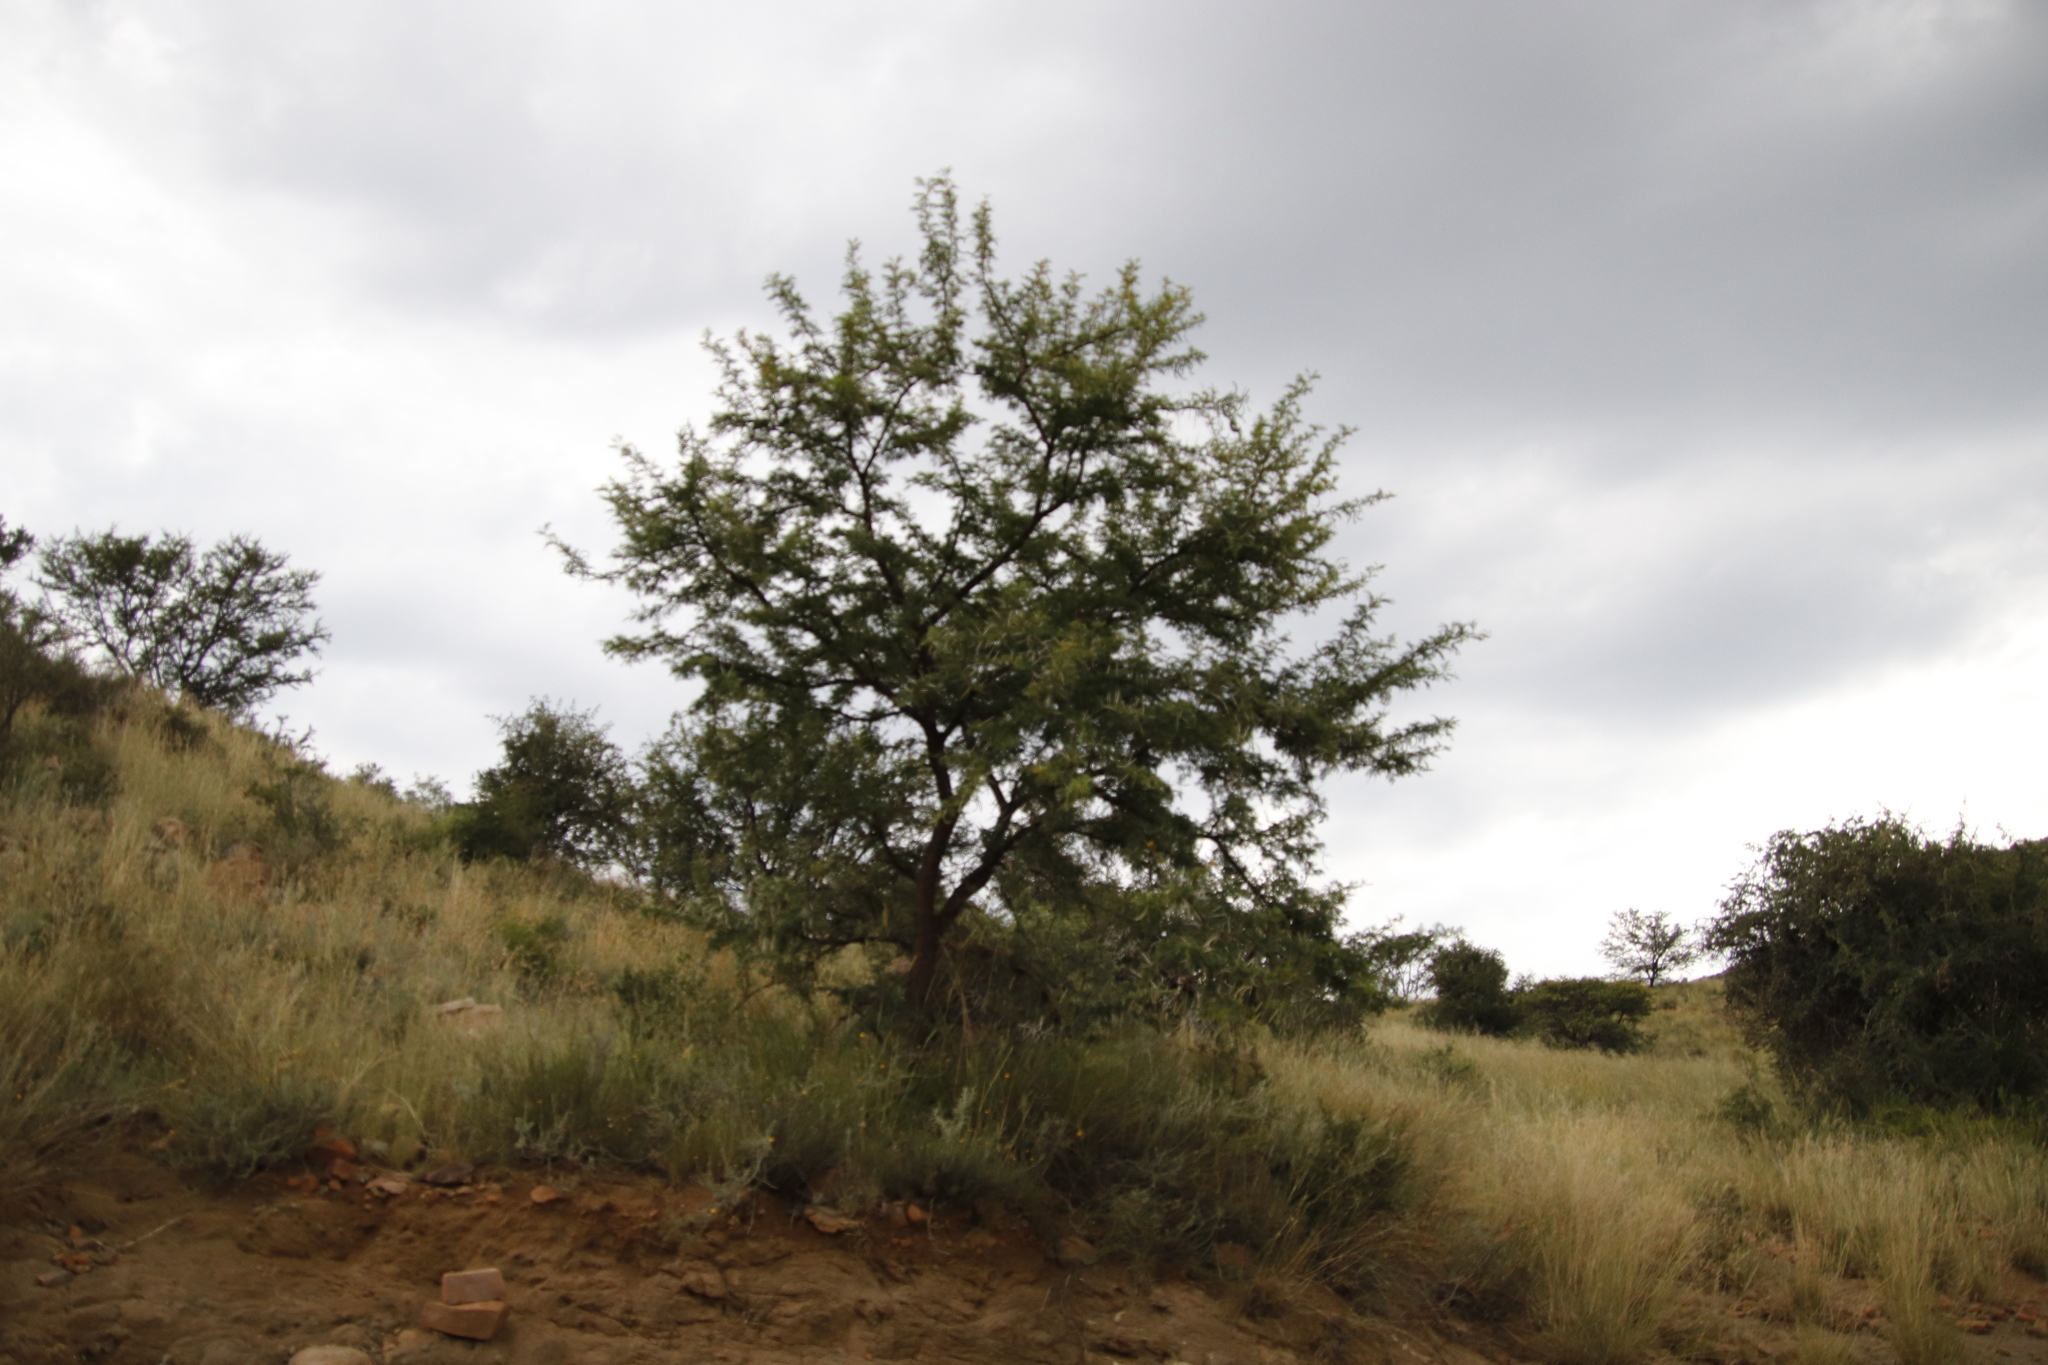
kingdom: Plantae
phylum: Tracheophyta
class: Magnoliopsida
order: Fabales
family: Fabaceae
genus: Vachellia
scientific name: Vachellia karroo
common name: Sweet thorn
